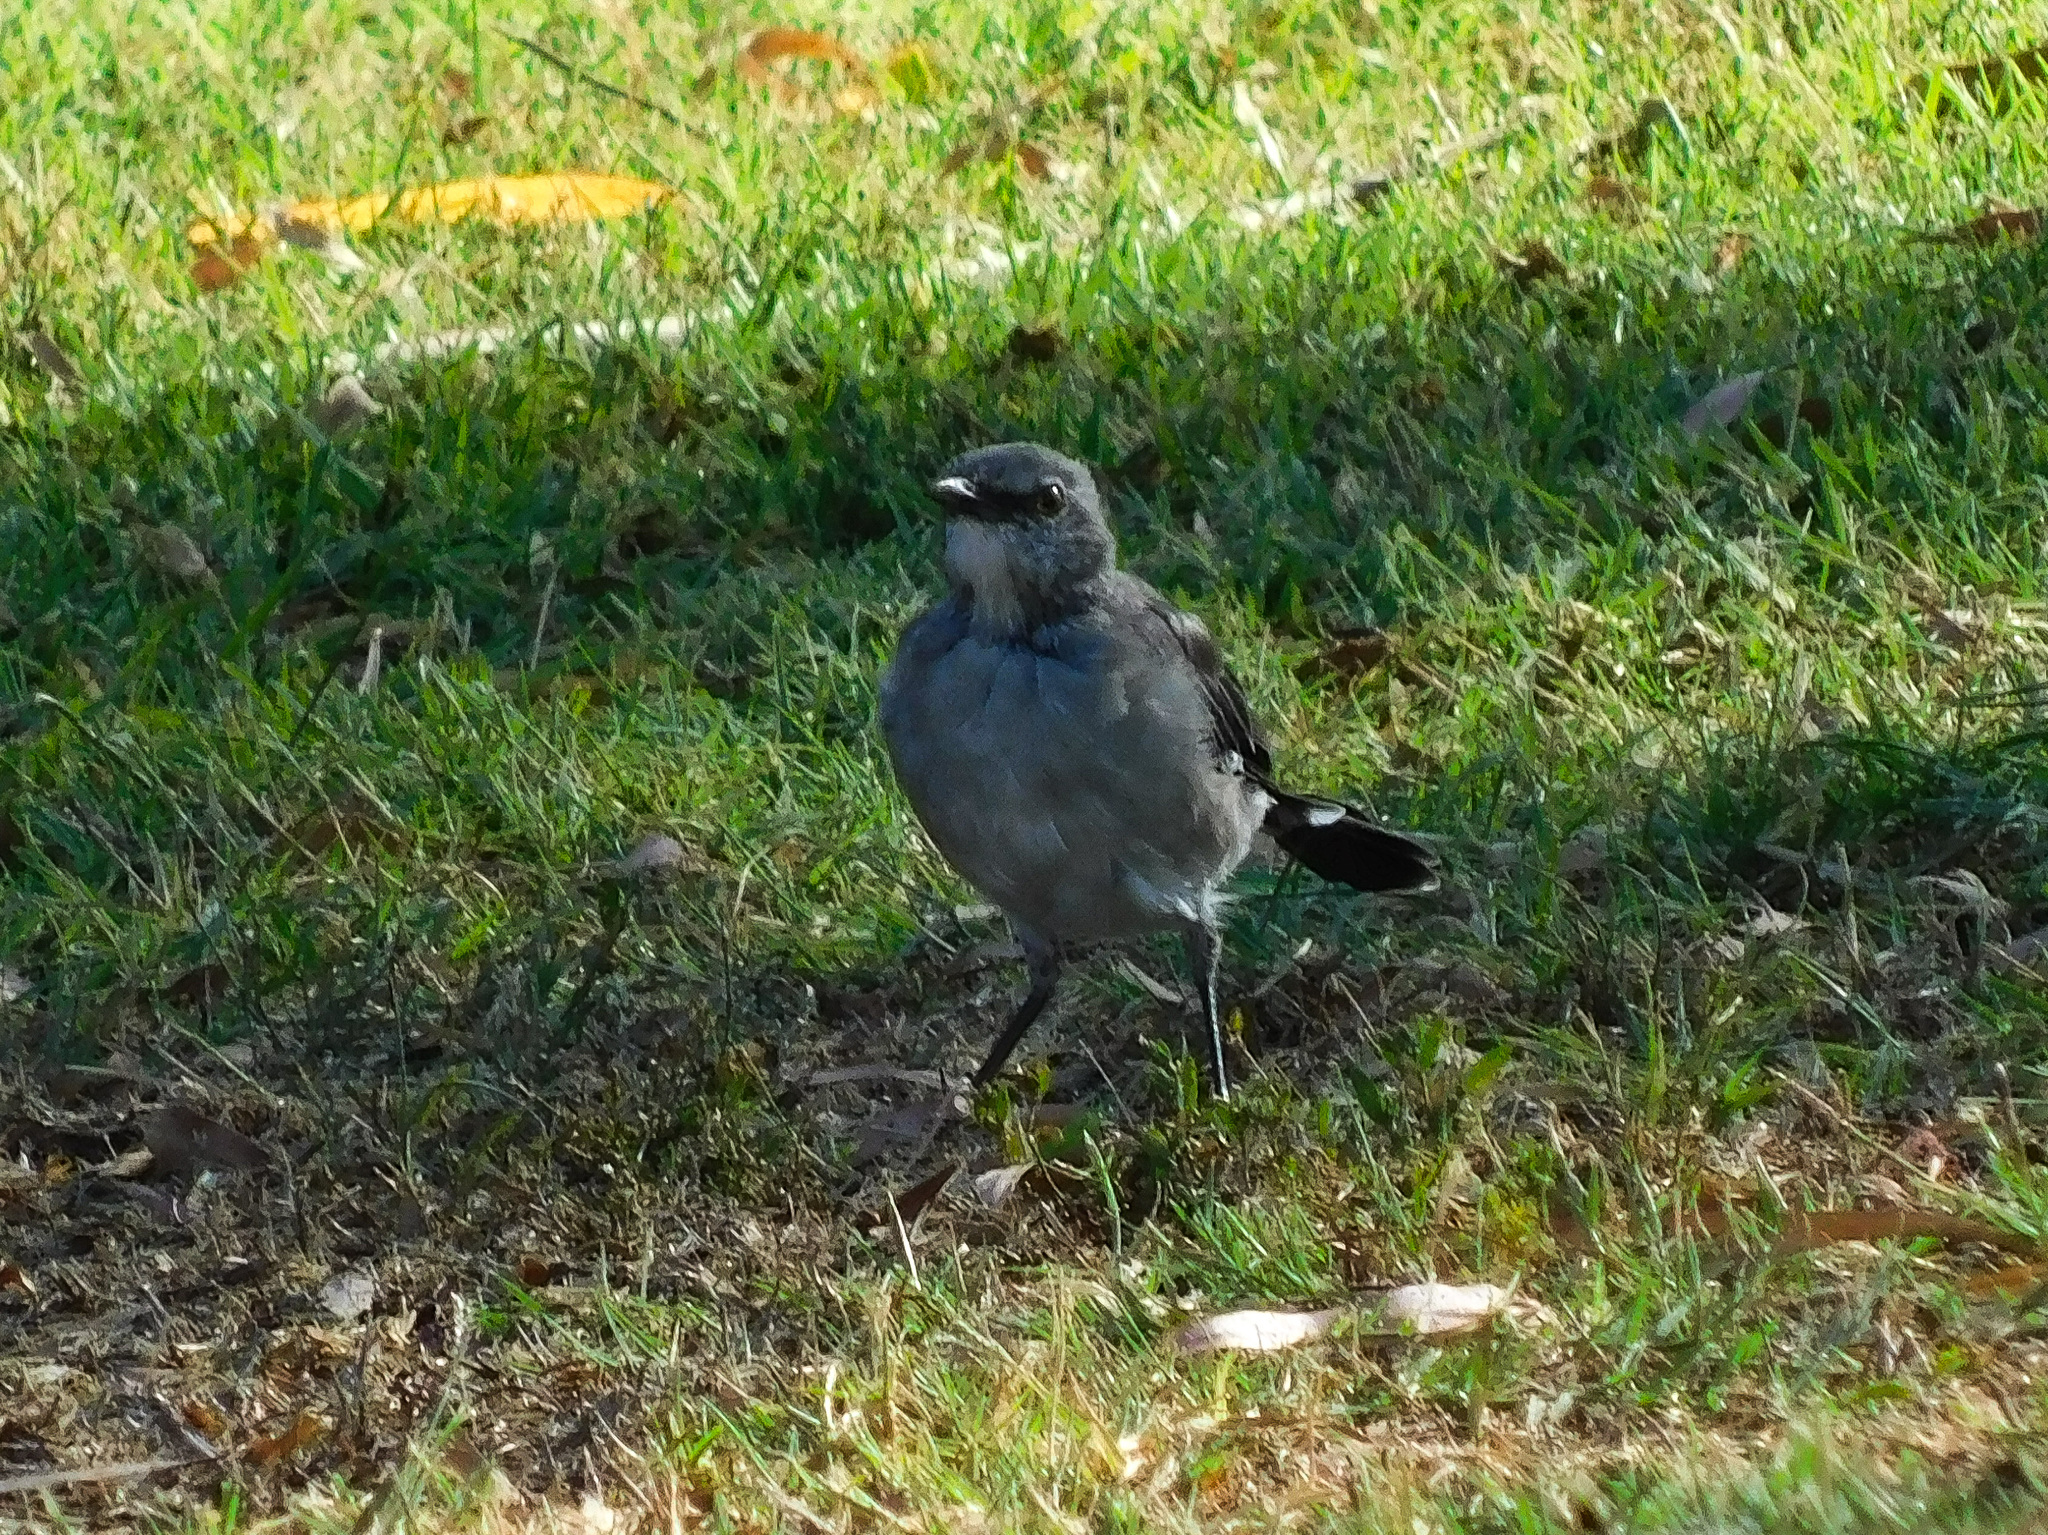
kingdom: Animalia
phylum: Chordata
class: Aves
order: Passeriformes
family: Mimidae
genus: Mimus
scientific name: Mimus polyglottos
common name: Northern mockingbird
